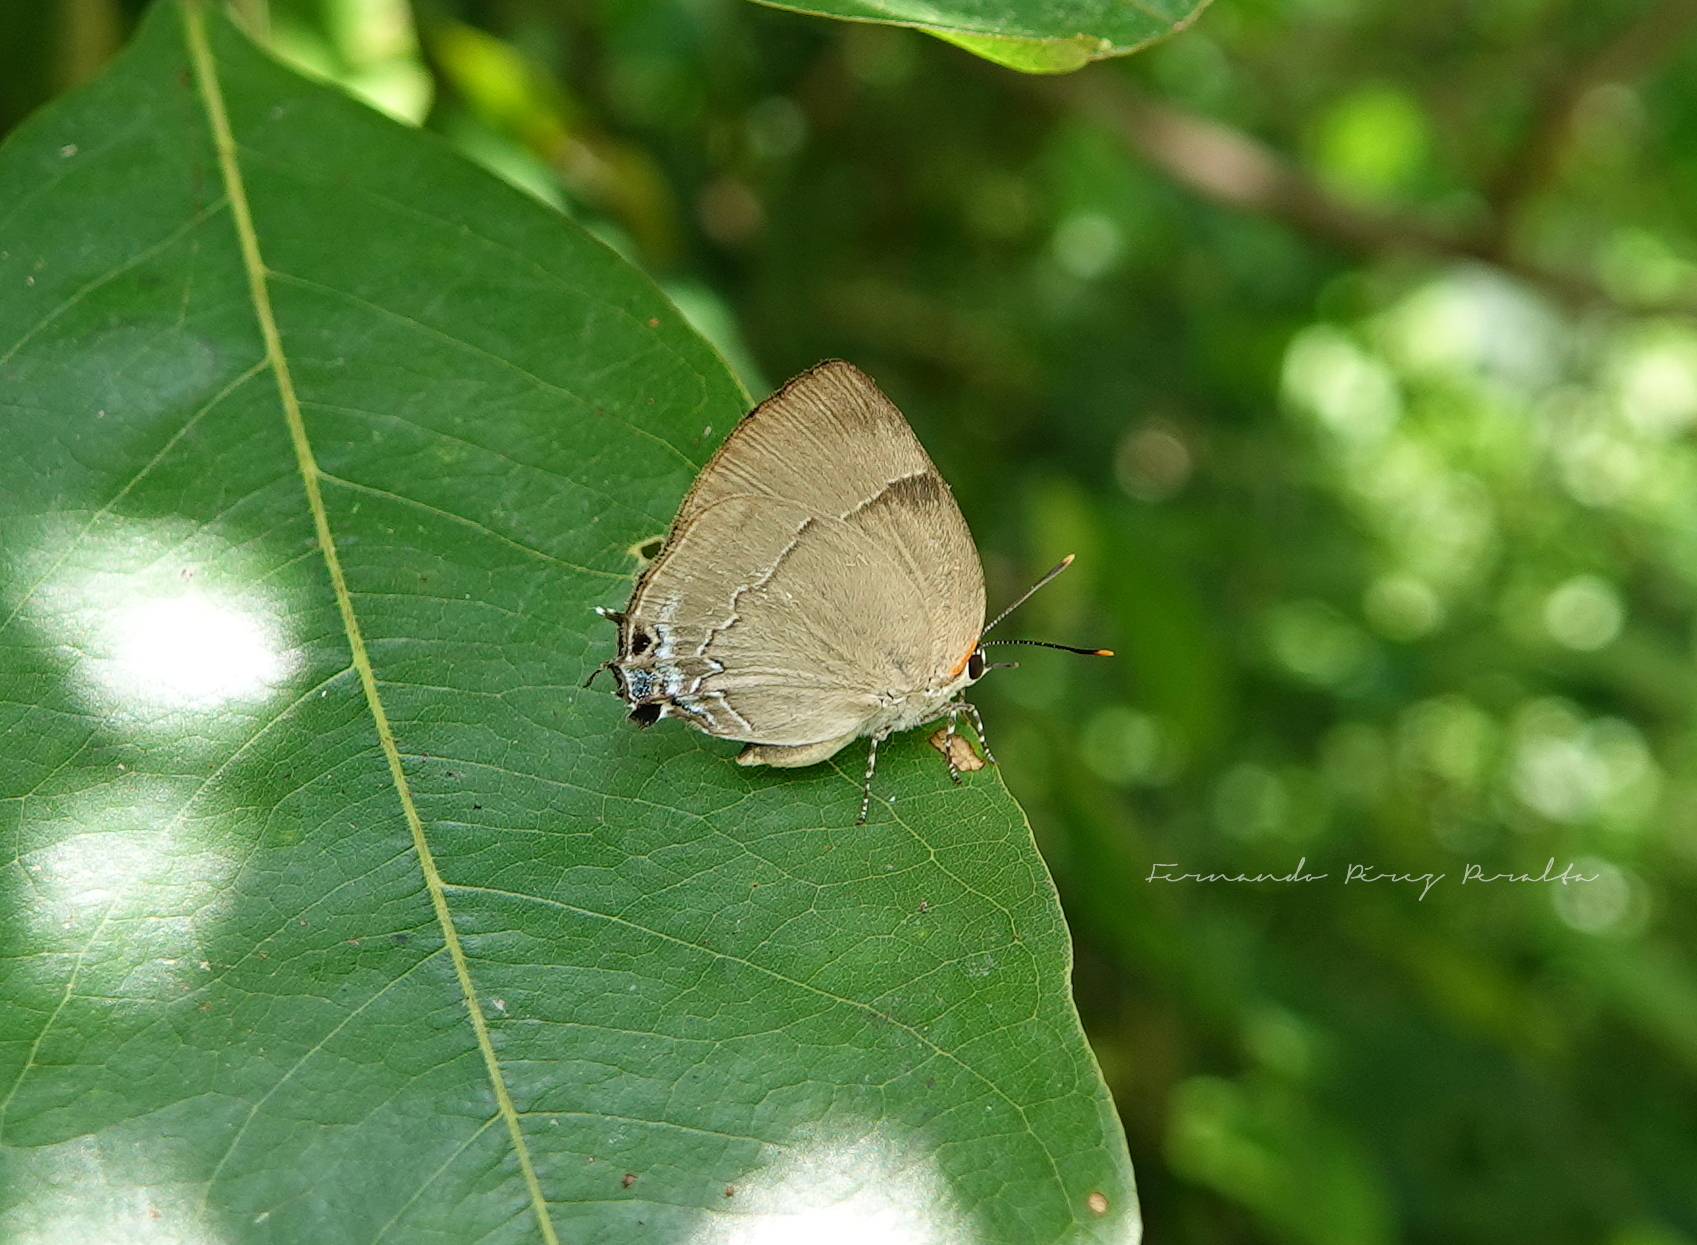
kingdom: Animalia
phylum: Arthropoda
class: Insecta
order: Lepidoptera
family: Lycaenidae
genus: Panthiades
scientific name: Panthiades bitias
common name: Bitias hairstreak
